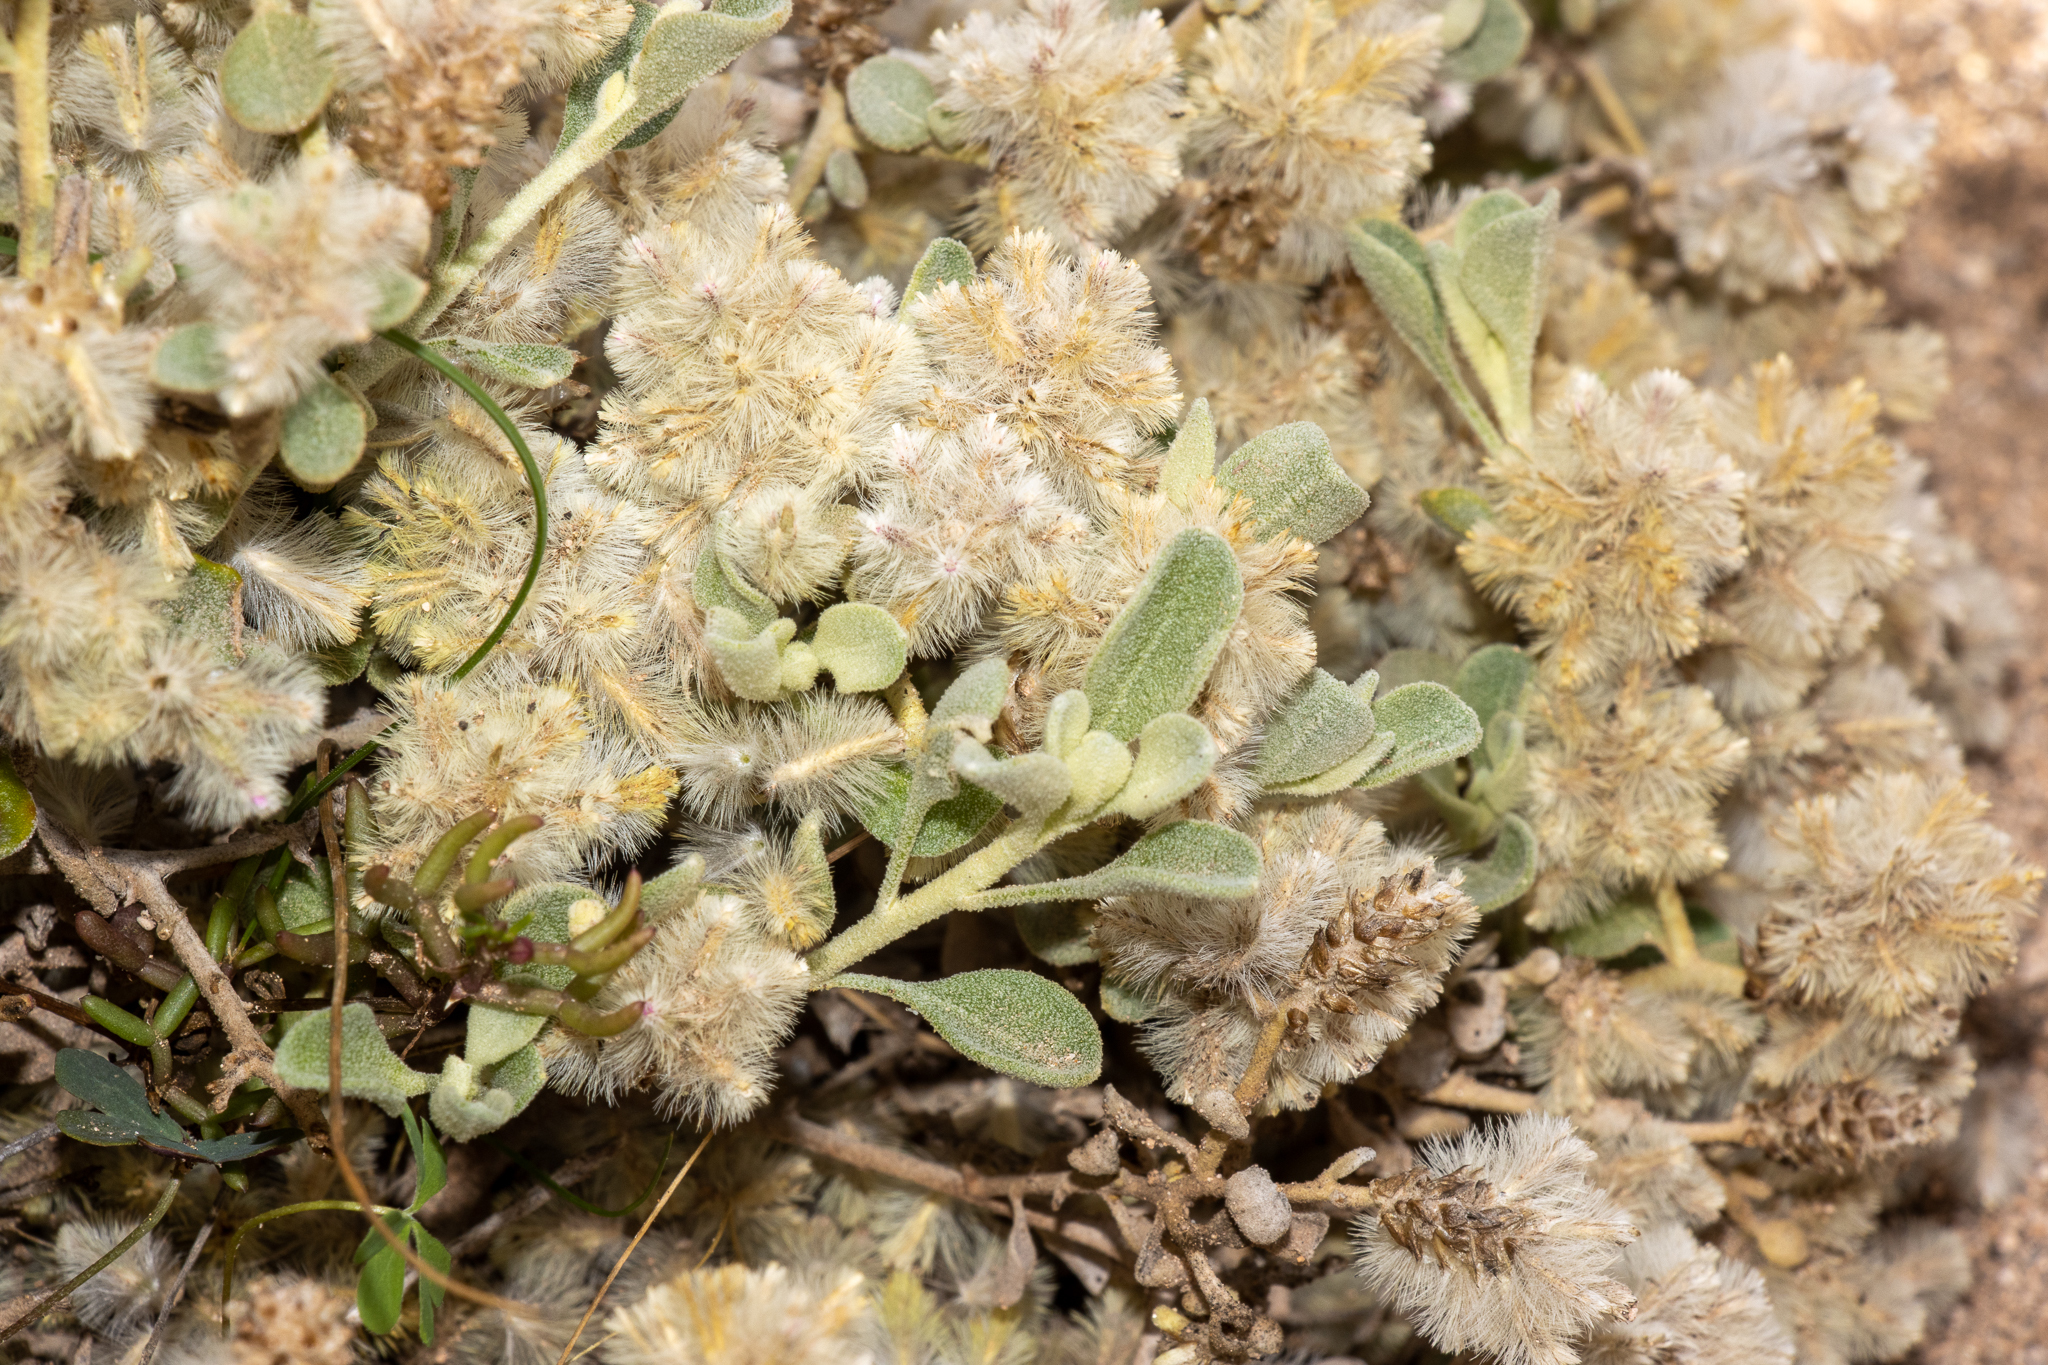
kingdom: Plantae
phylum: Tracheophyta
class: Magnoliopsida
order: Caryophyllales
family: Amaranthaceae
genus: Ptilotus
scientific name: Ptilotus obovatus
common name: Cottonbush
